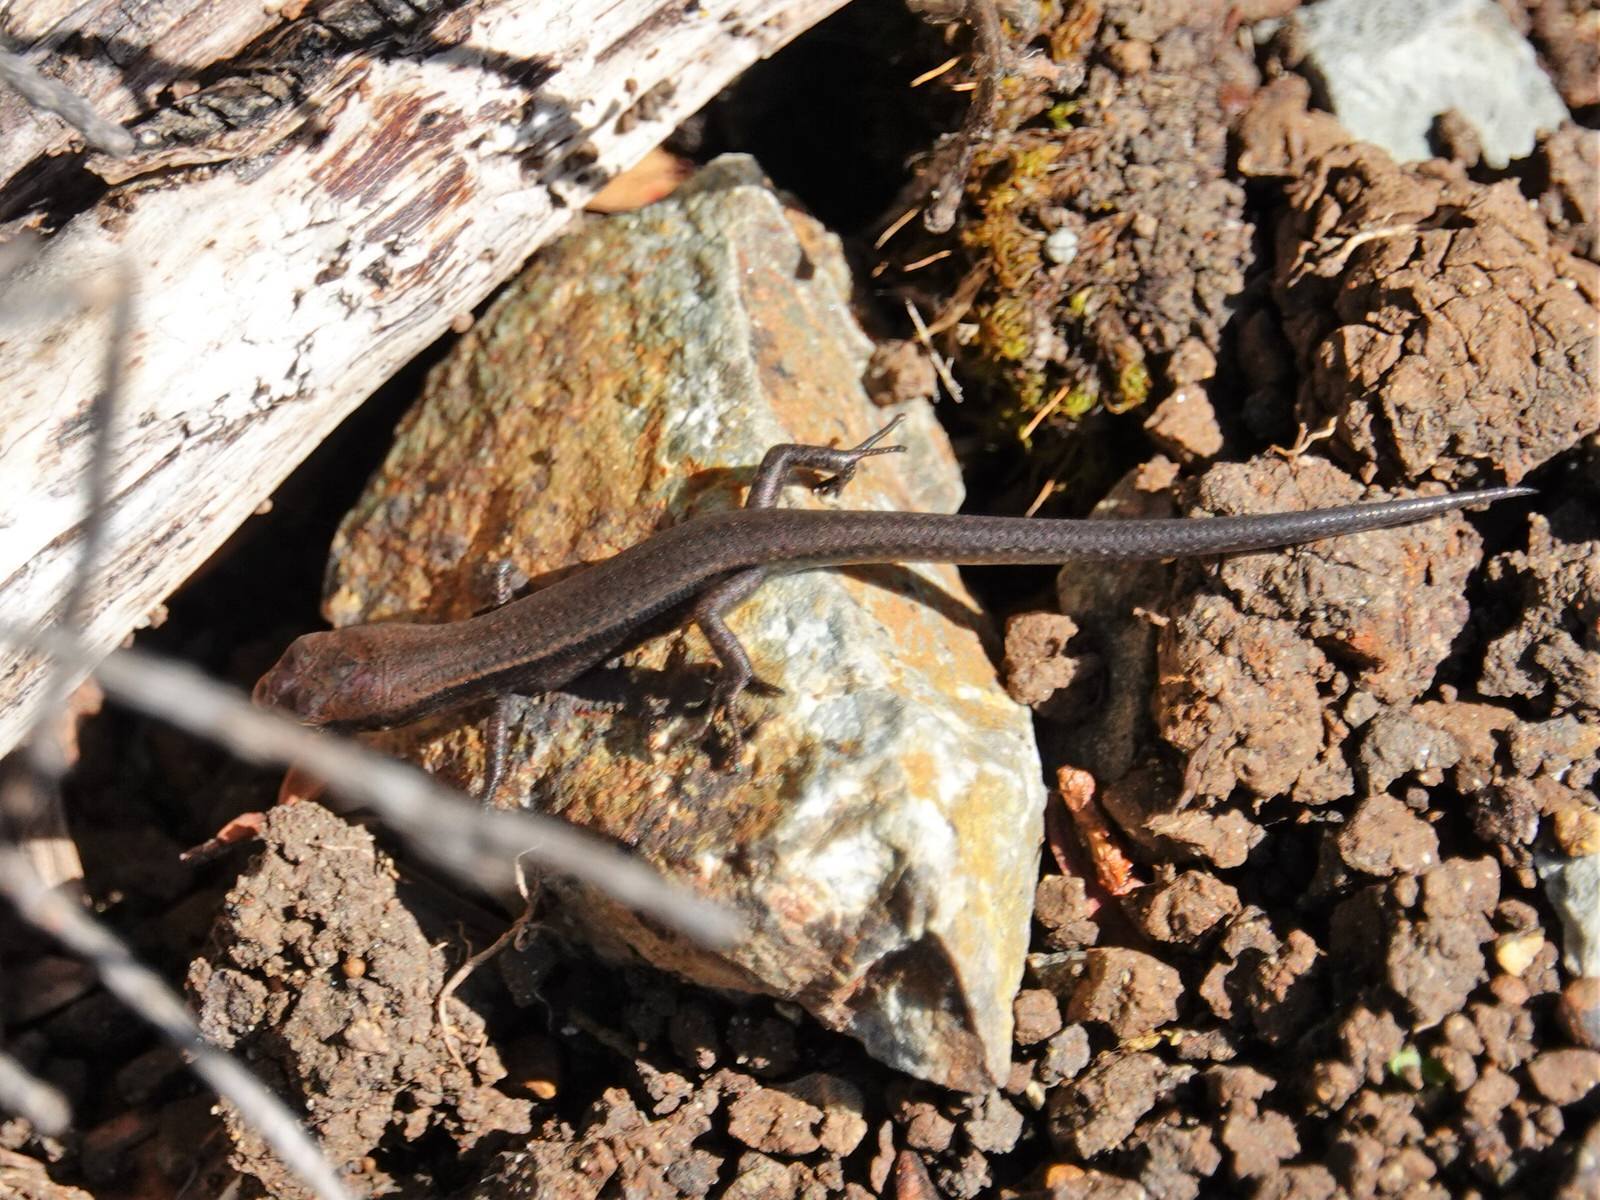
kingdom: Animalia
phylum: Chordata
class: Squamata
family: Scincidae
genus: Lampropholis
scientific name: Lampropholis delicata
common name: Plague skink
